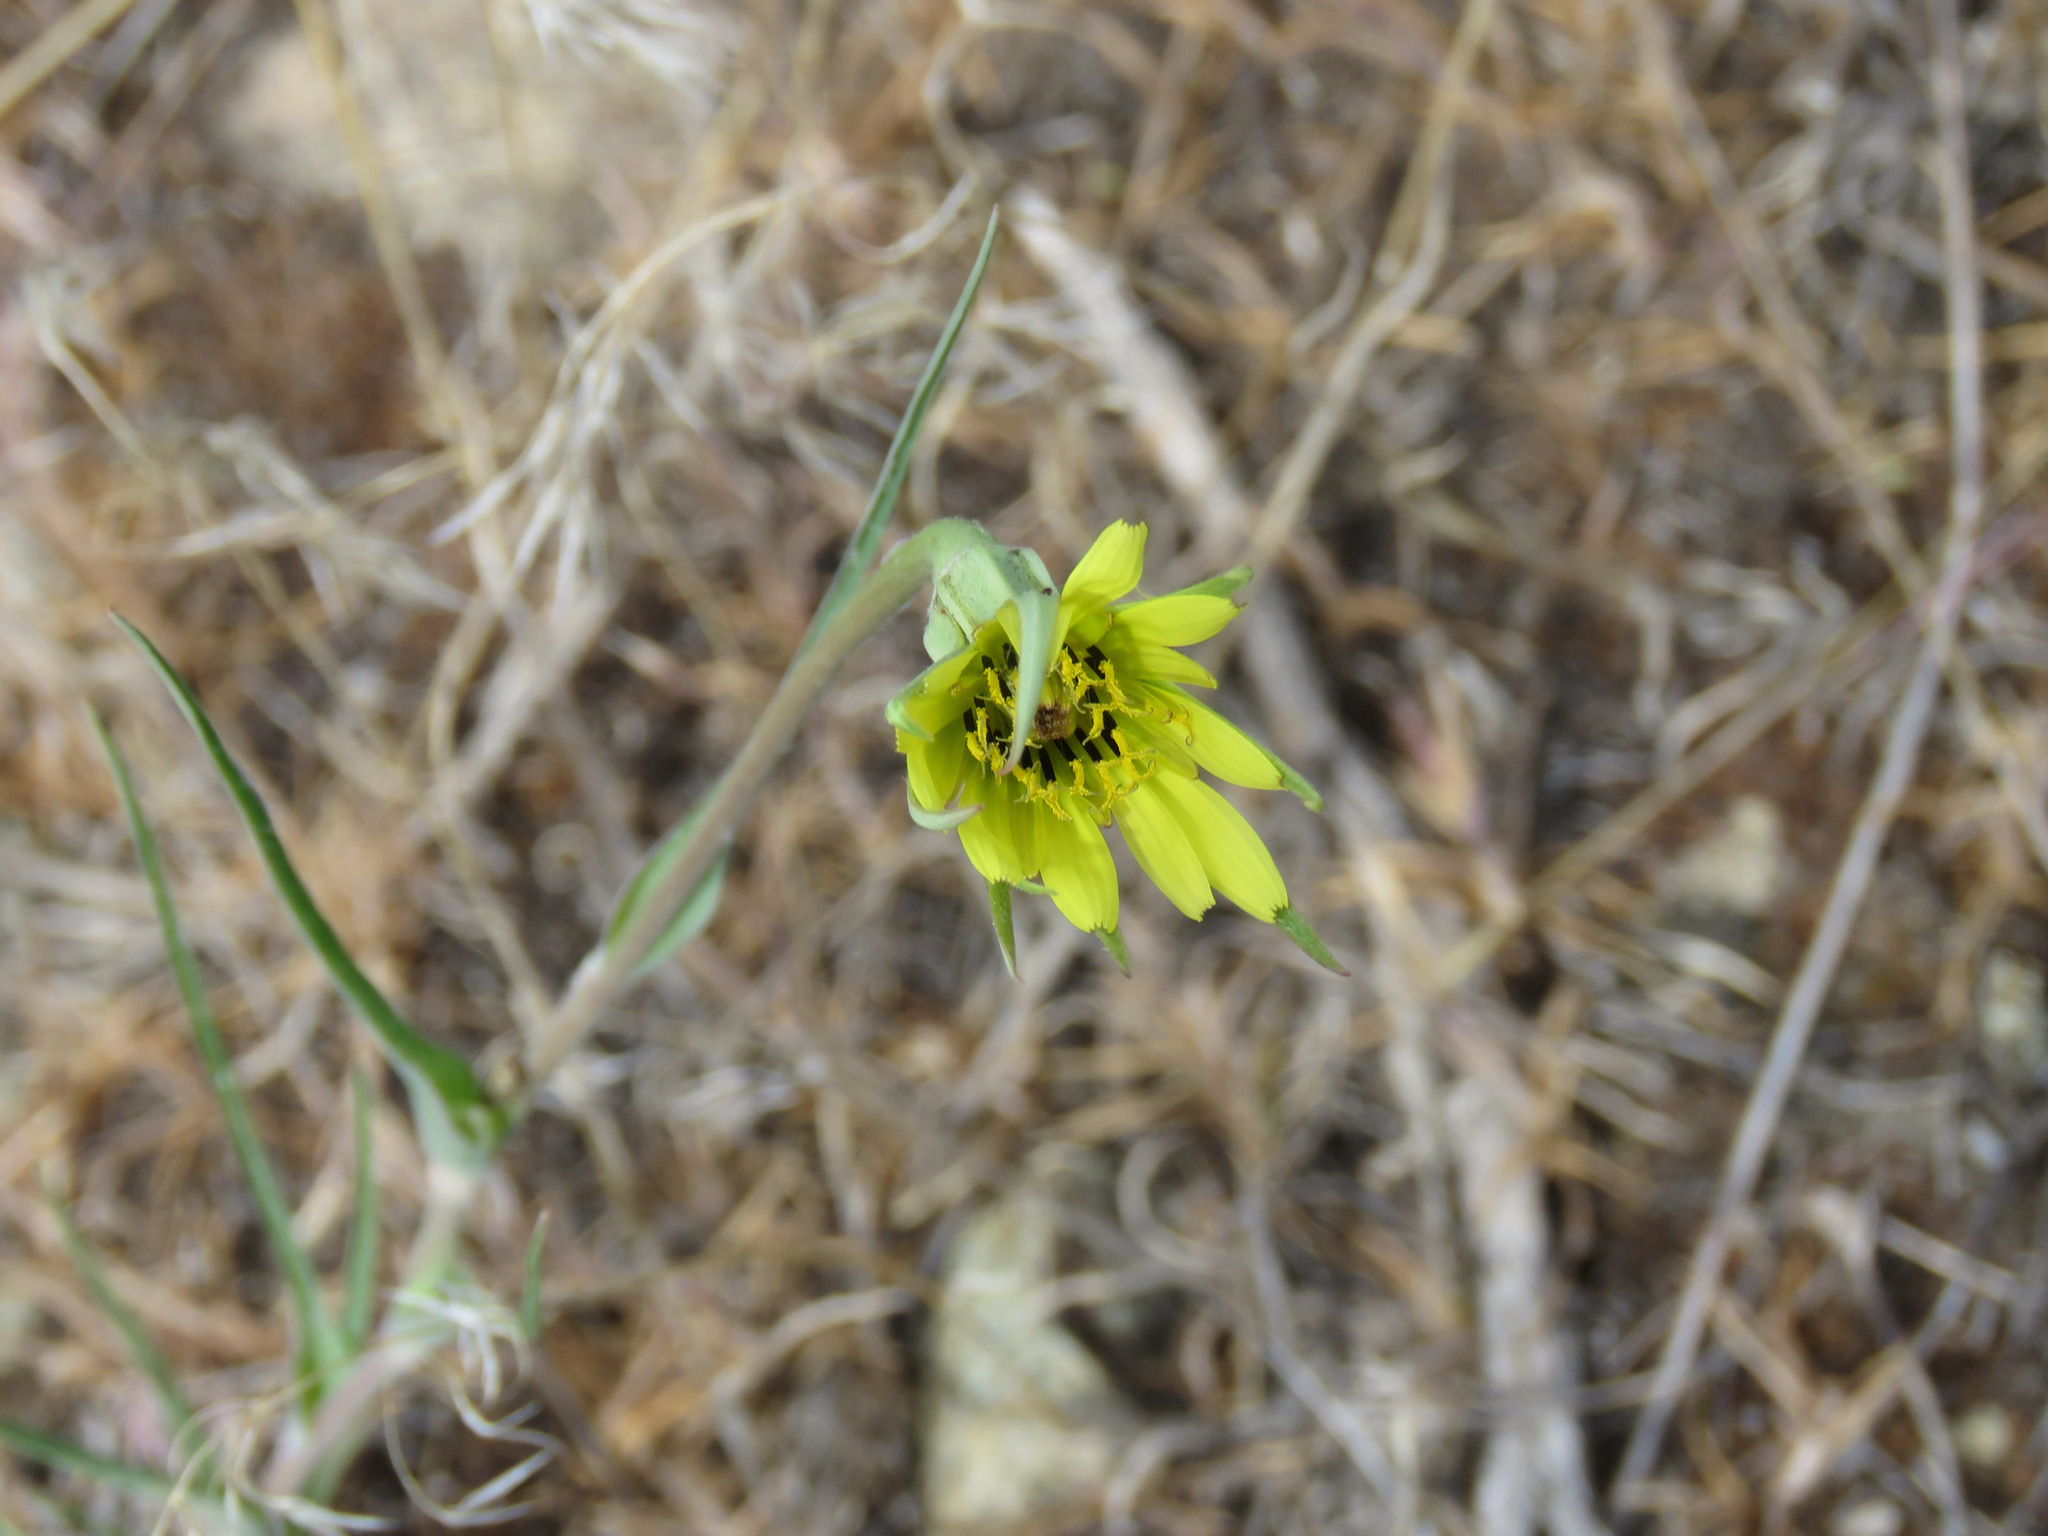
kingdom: Plantae
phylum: Tracheophyta
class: Magnoliopsida
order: Asterales
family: Asteraceae
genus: Tragopogon
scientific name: Tragopogon dubius
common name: Yellow salsify
